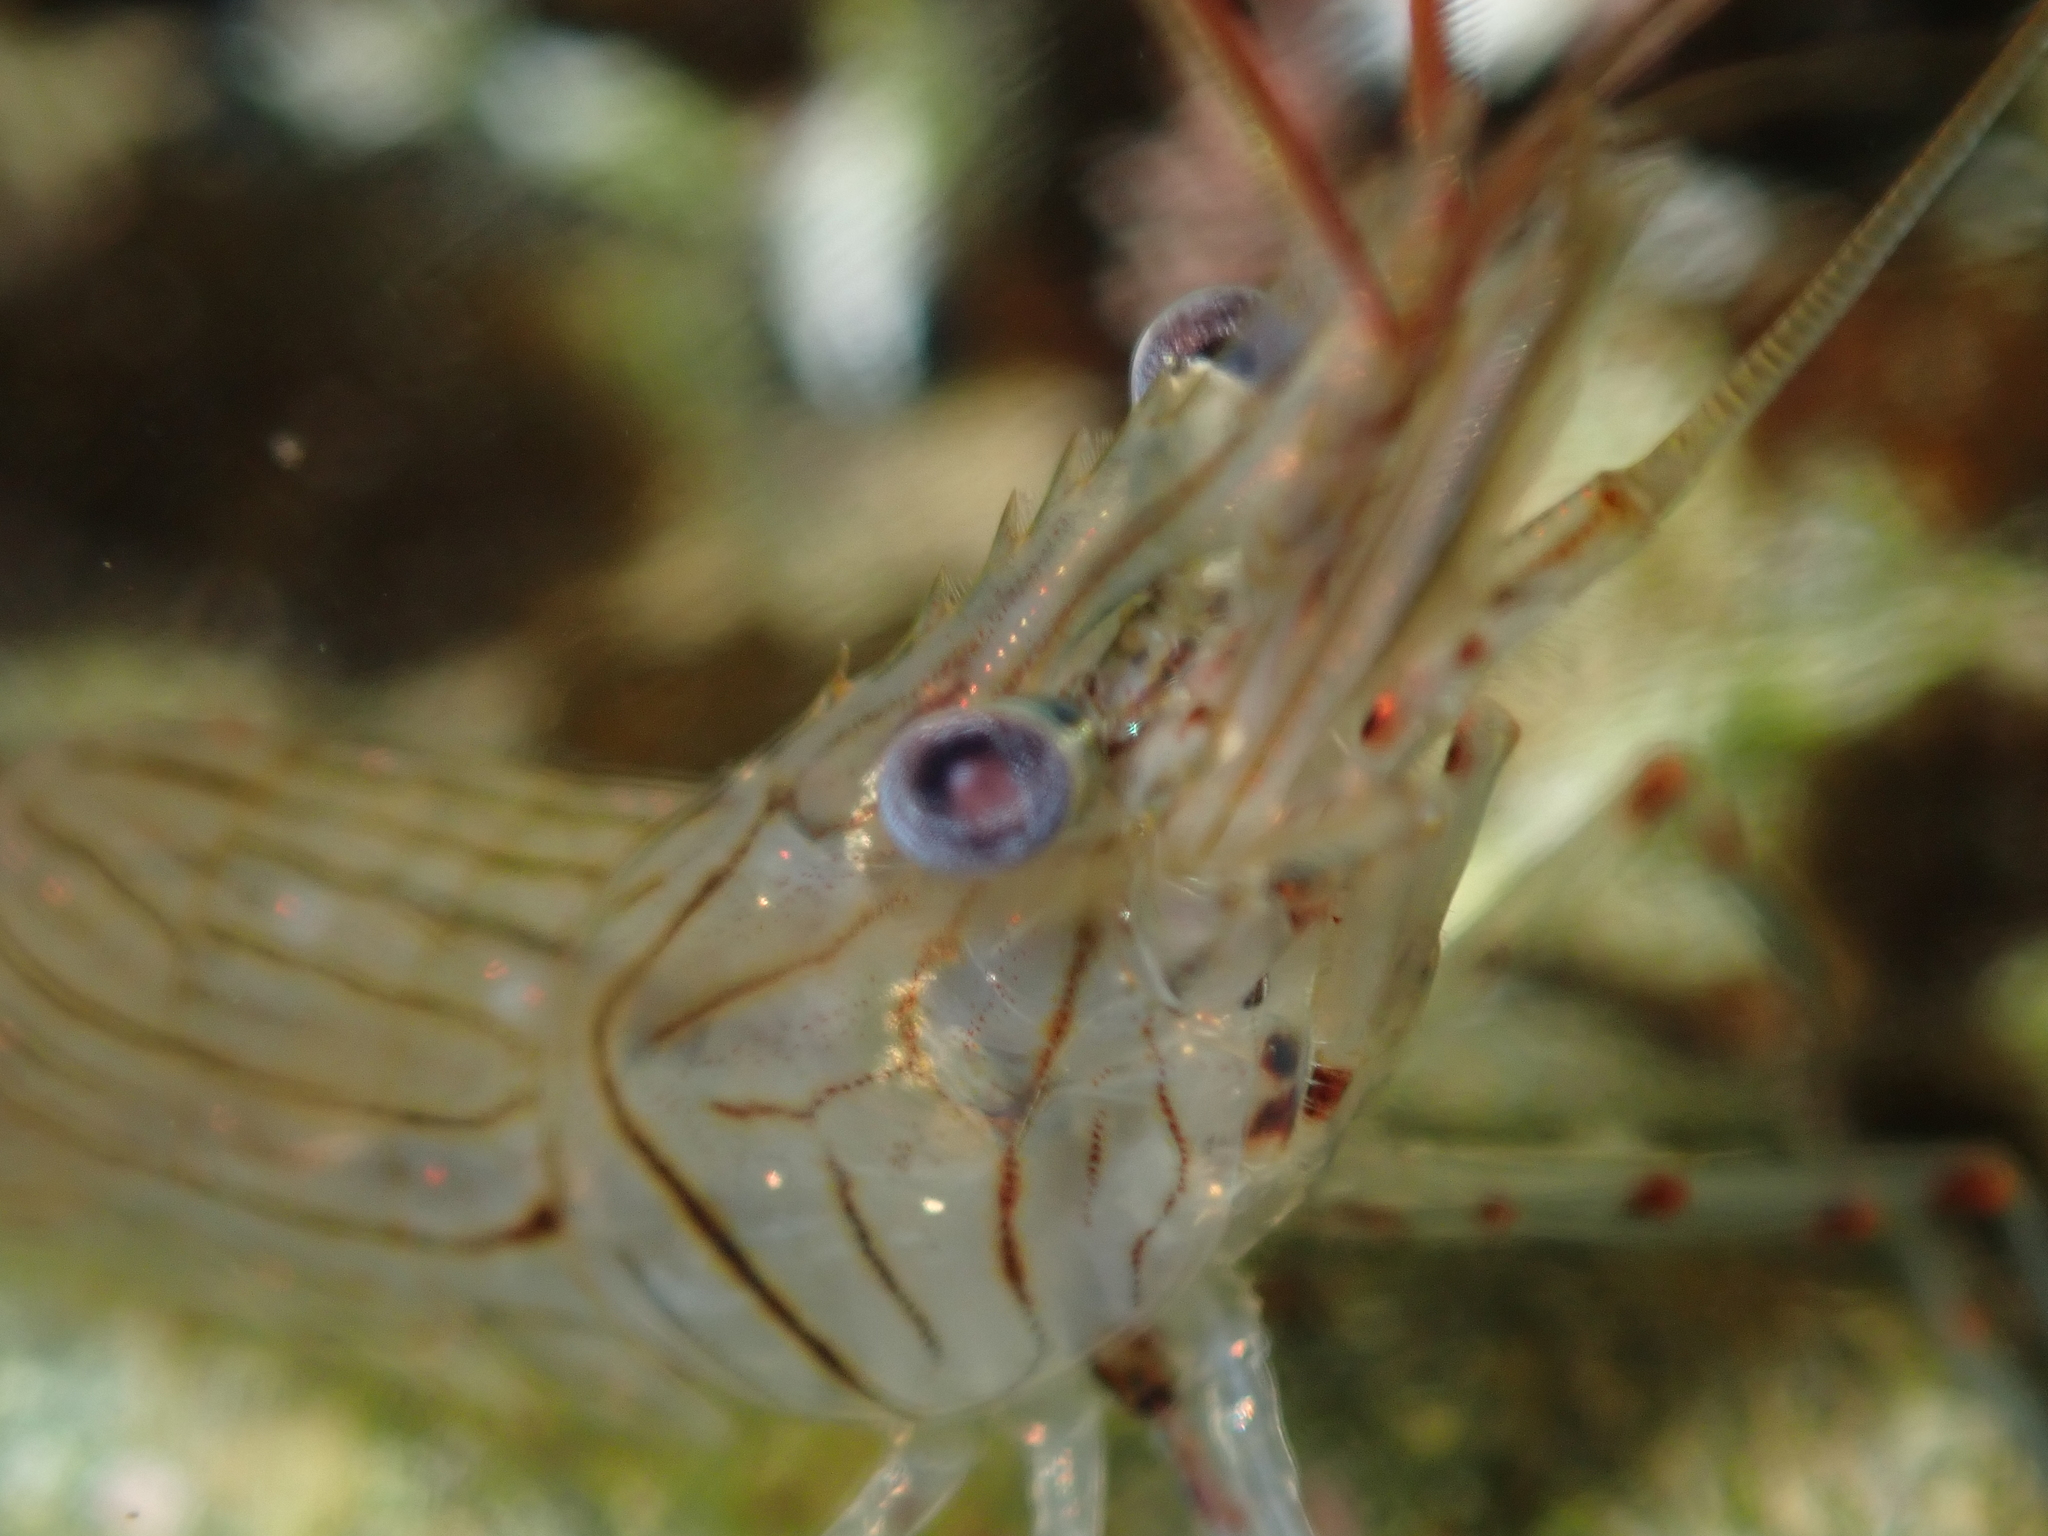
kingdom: Animalia
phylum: Arthropoda
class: Malacostraca
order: Decapoda
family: Palaemonidae
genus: Palaemon
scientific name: Palaemon affinis
